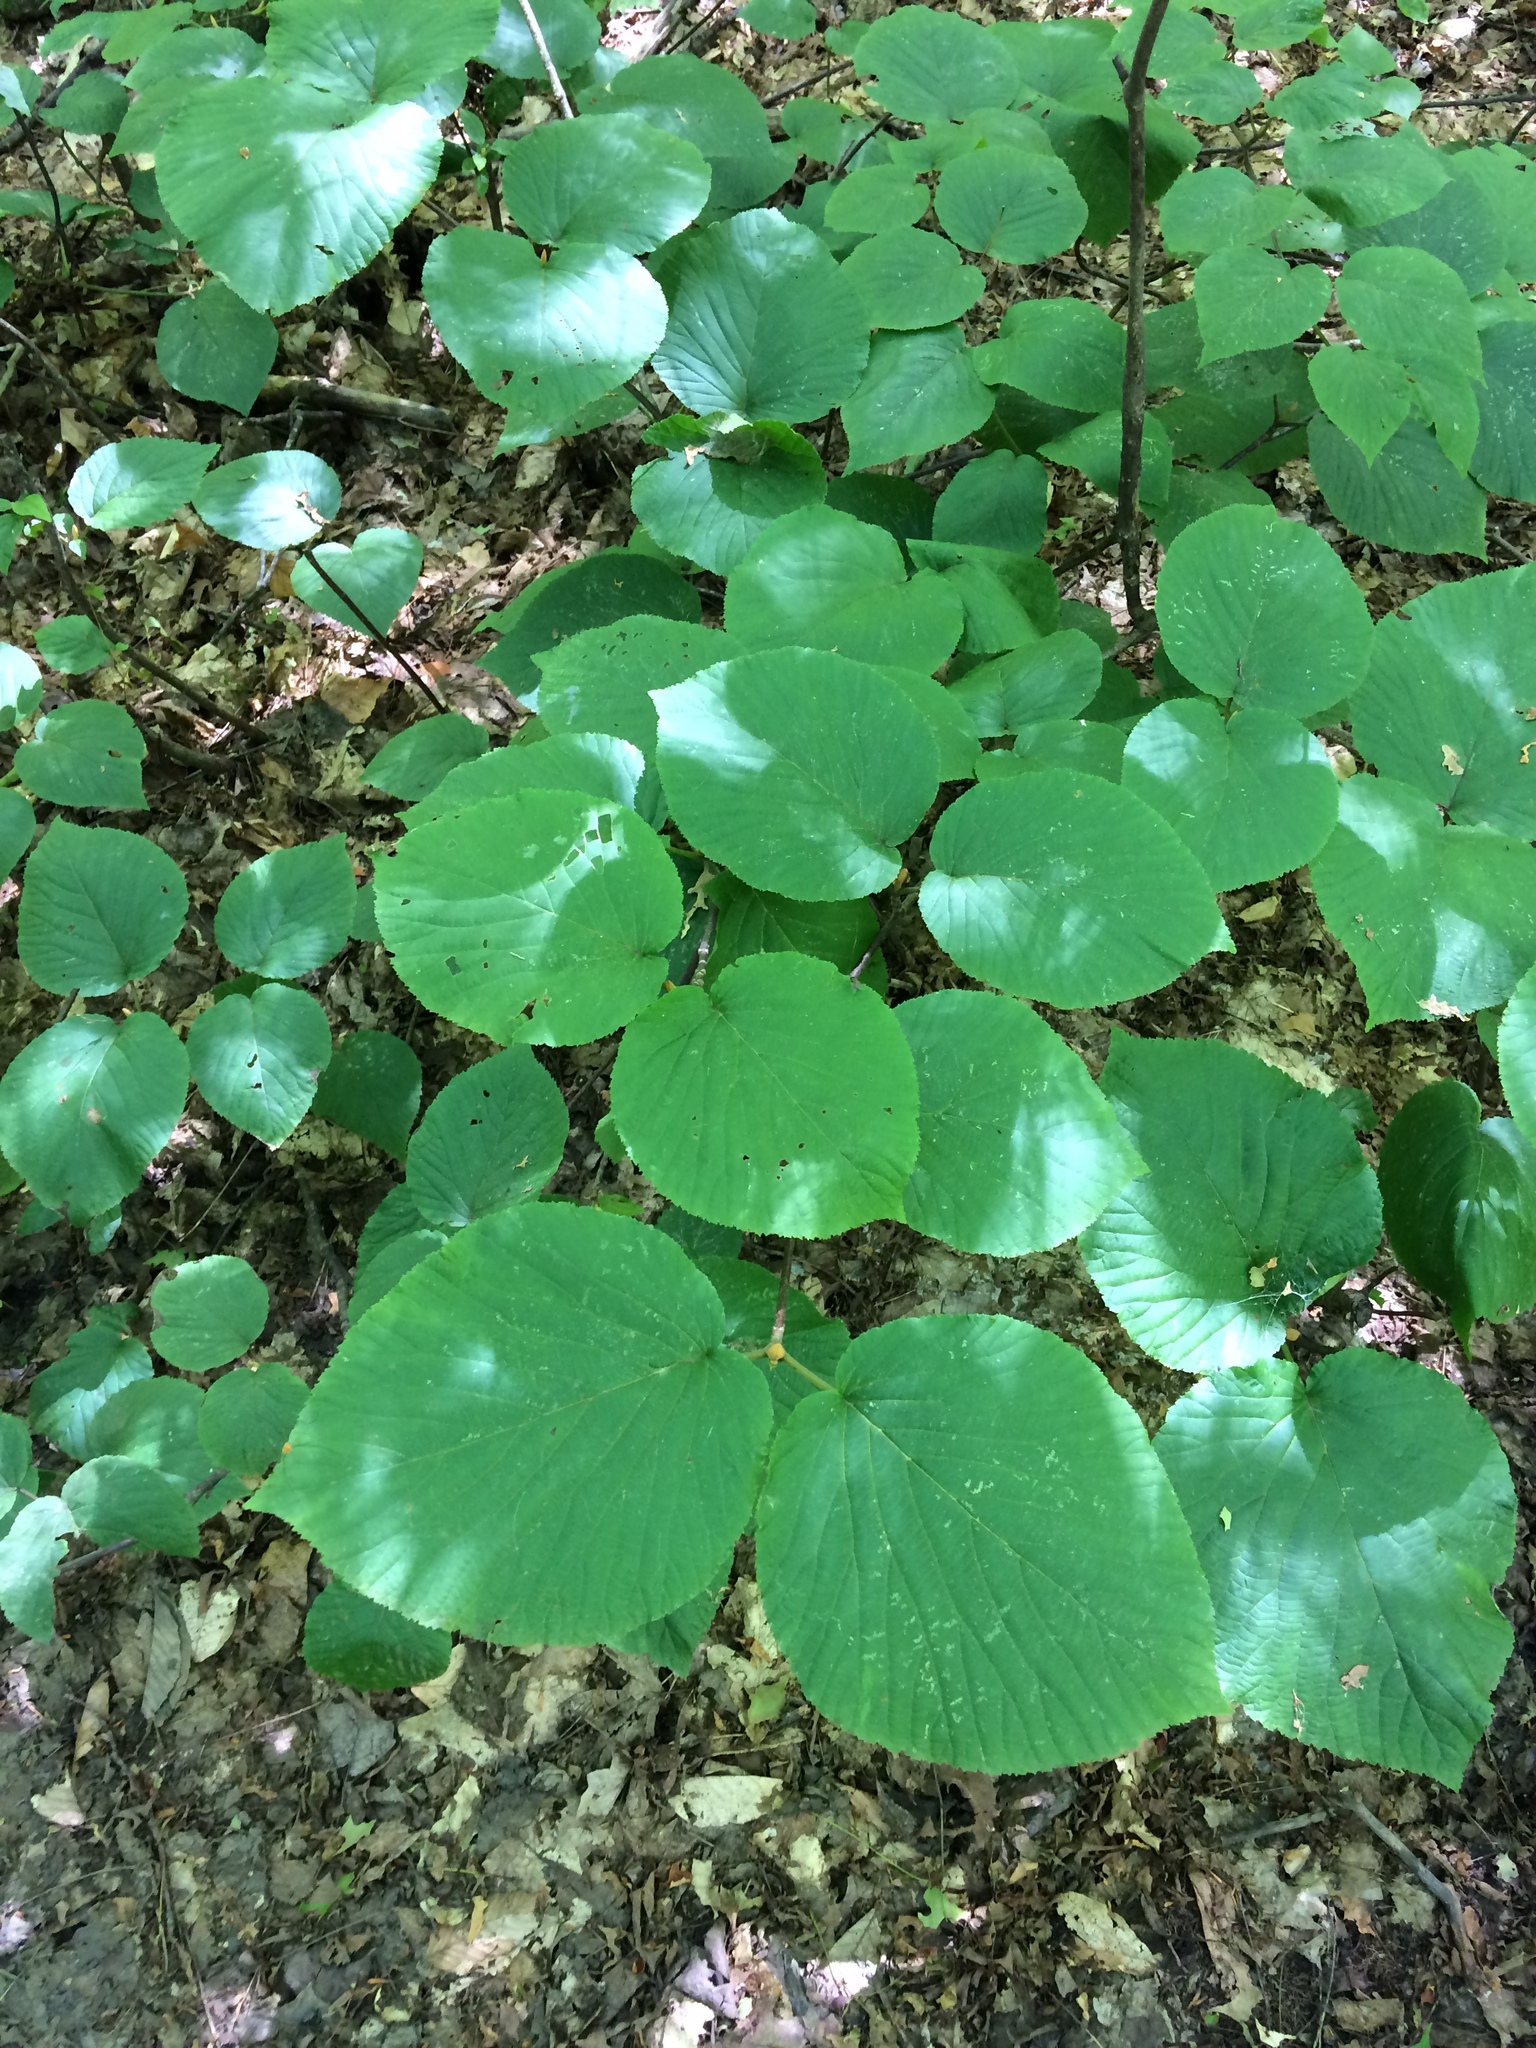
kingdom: Plantae
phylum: Tracheophyta
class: Magnoliopsida
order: Dipsacales
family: Viburnaceae
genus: Viburnum
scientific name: Viburnum lantanoides
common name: Hobblebush
